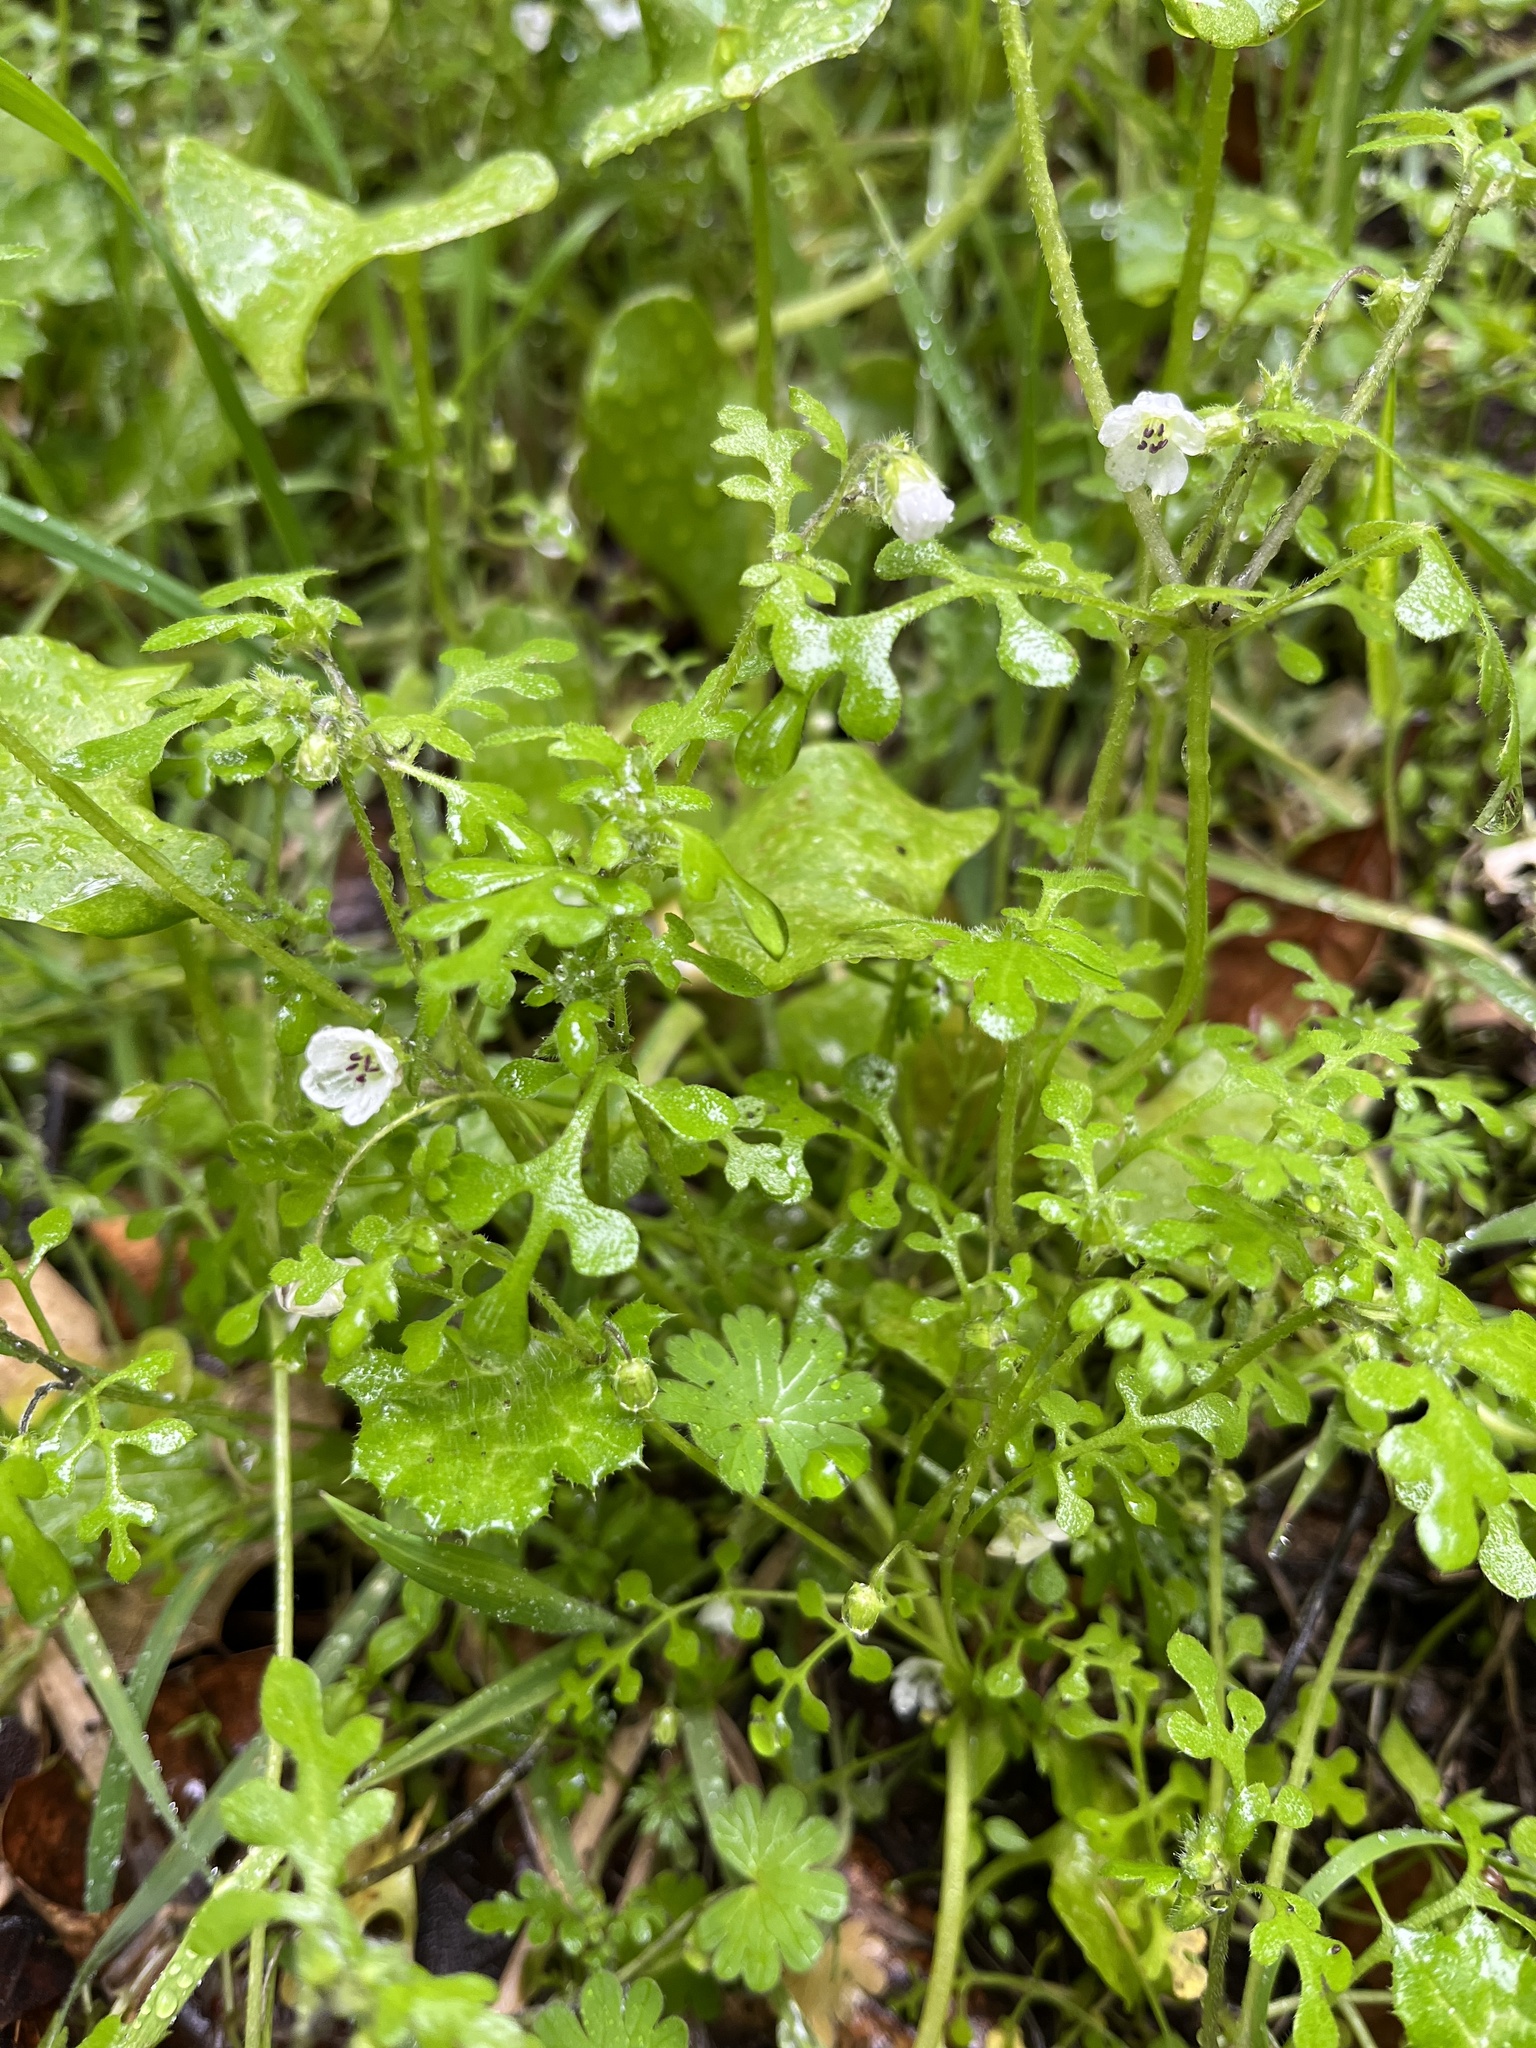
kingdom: Plantae
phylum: Tracheophyta
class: Magnoliopsida
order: Boraginales
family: Hydrophyllaceae
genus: Nemophila
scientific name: Nemophila heterophylla
